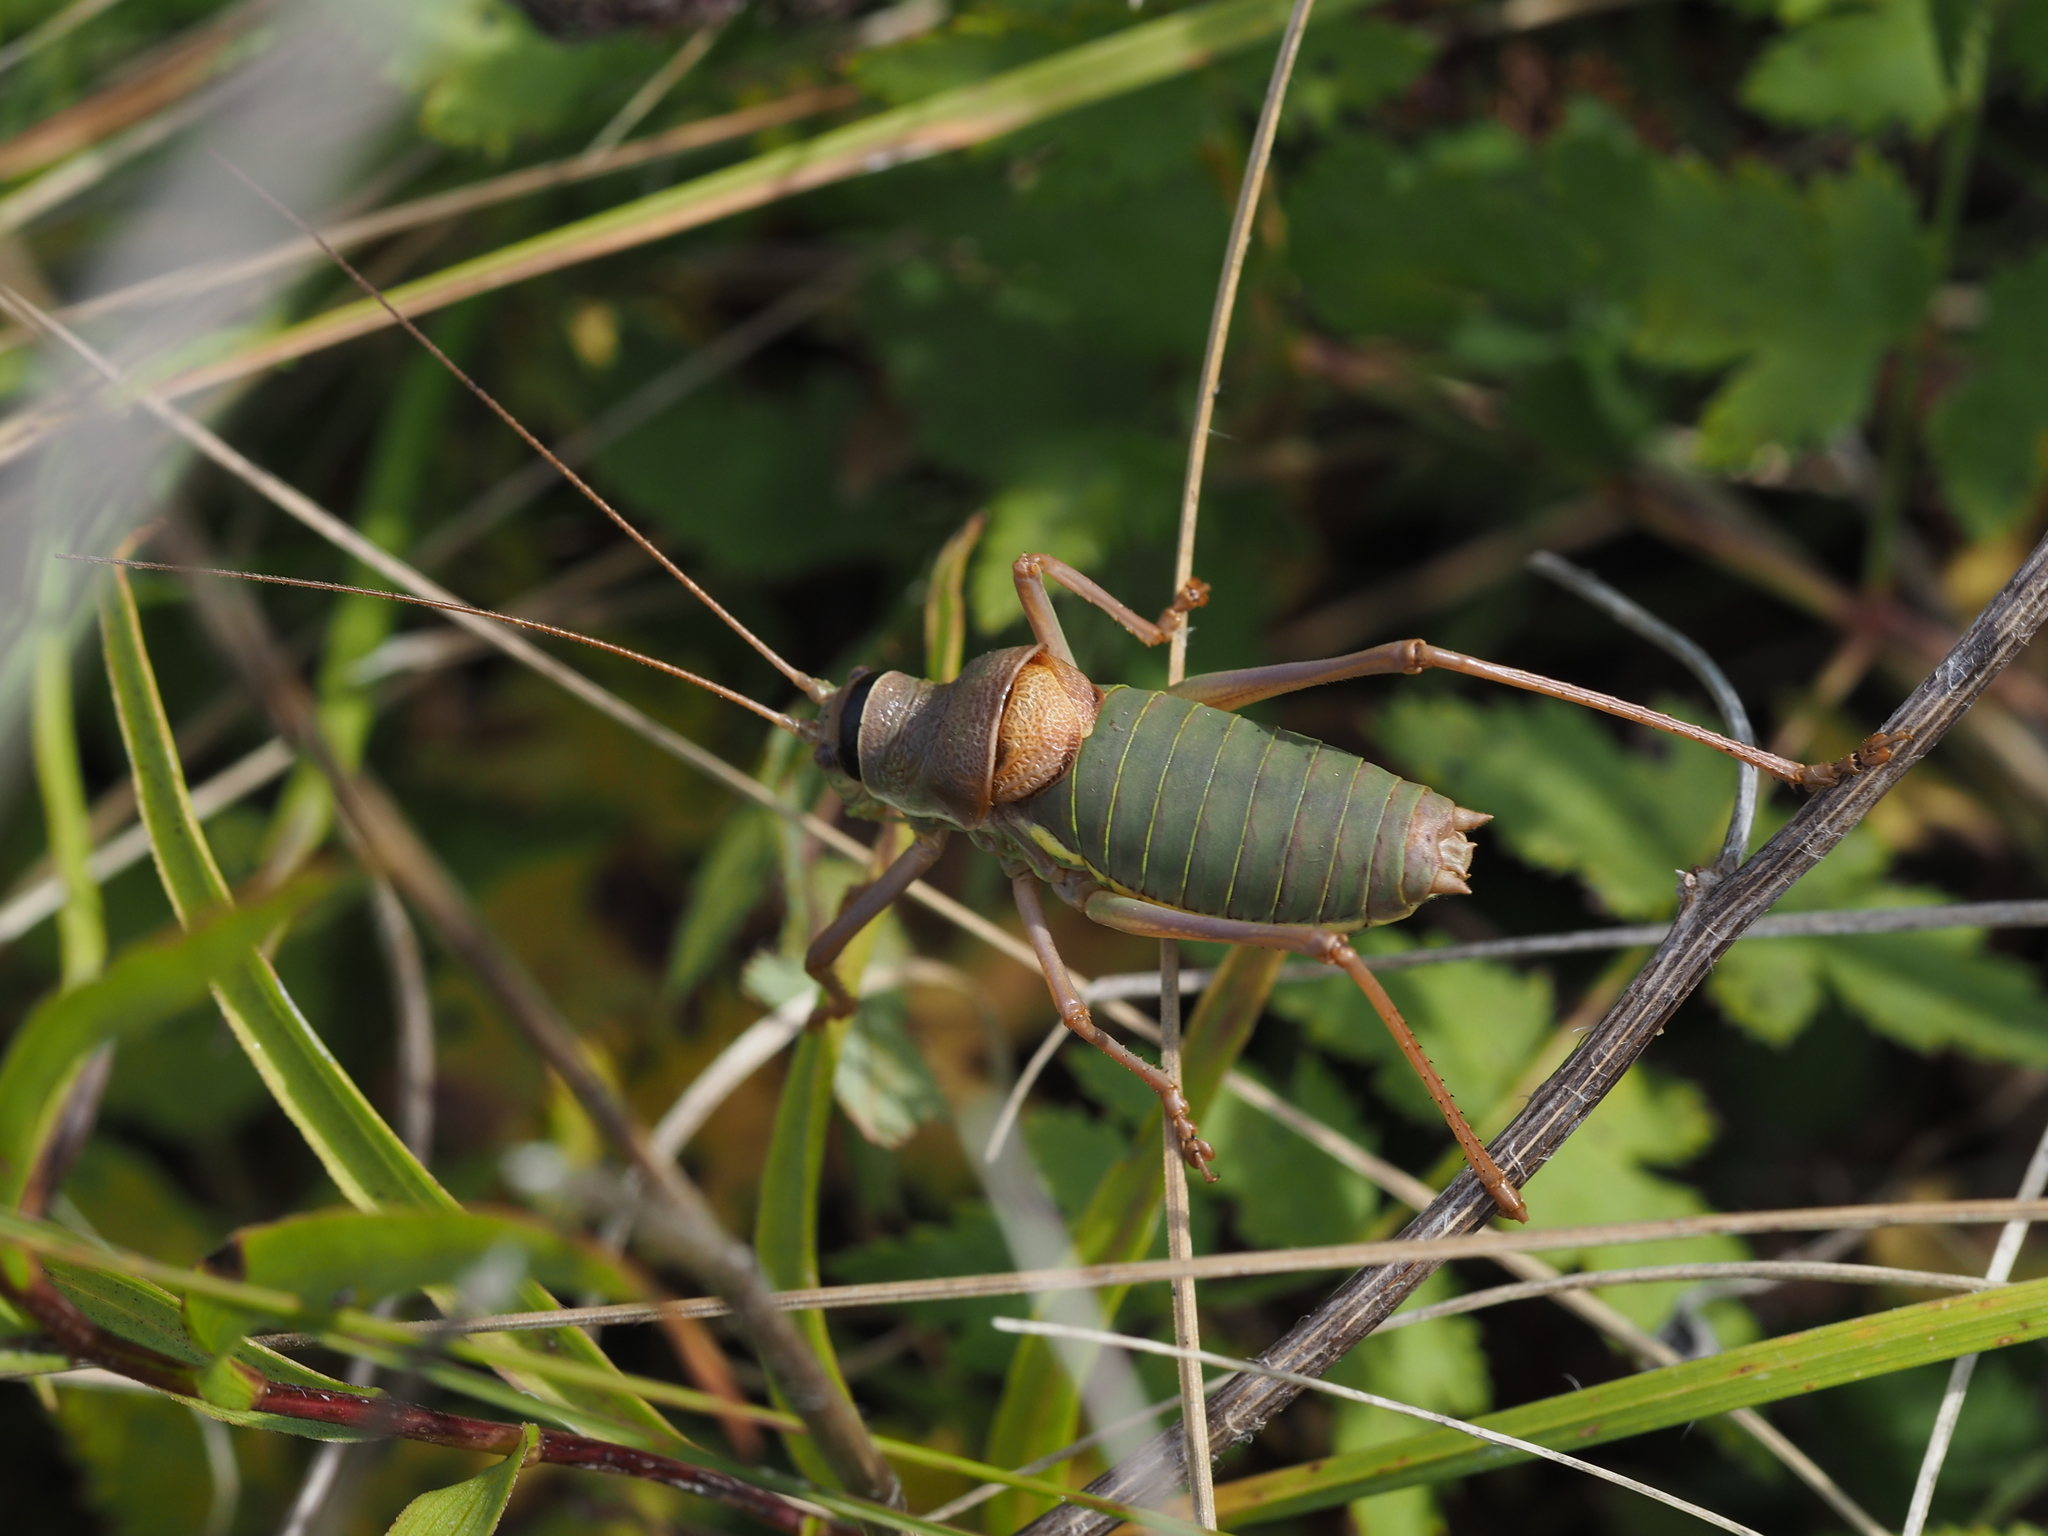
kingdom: Animalia
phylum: Arthropoda
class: Insecta
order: Orthoptera
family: Tettigoniidae
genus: Ephippiger
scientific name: Ephippiger ephippiger
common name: Eastern saddle bush-cricket
